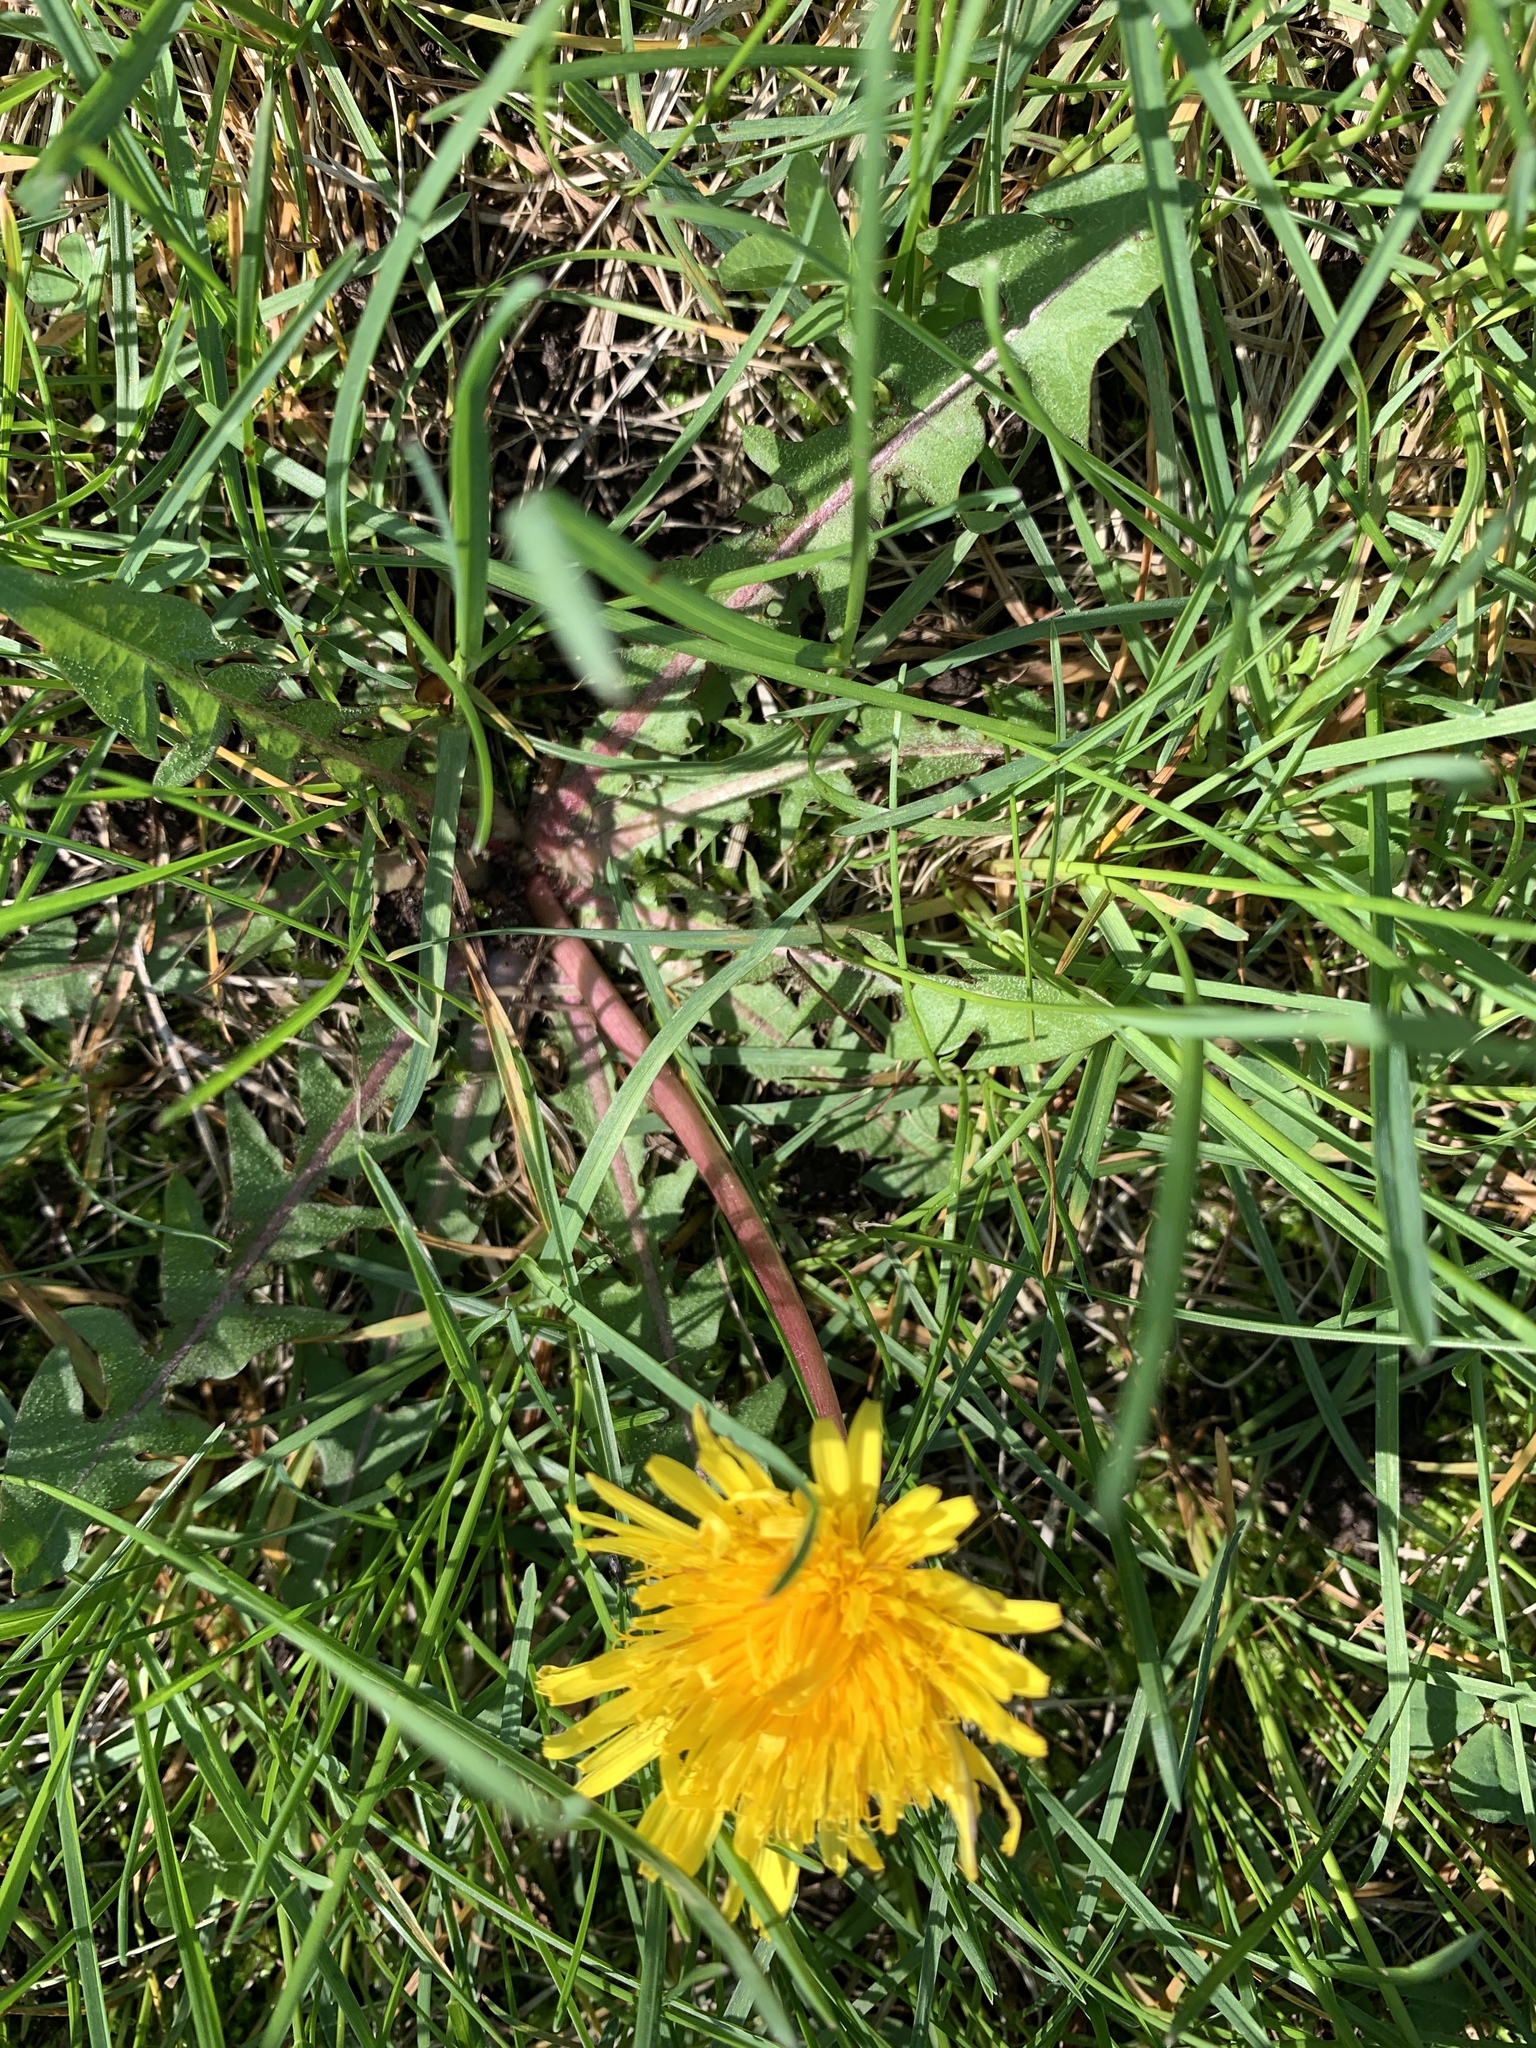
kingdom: Plantae
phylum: Tracheophyta
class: Magnoliopsida
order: Asterales
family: Asteraceae
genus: Taraxacum
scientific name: Taraxacum officinale
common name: Common dandelion
